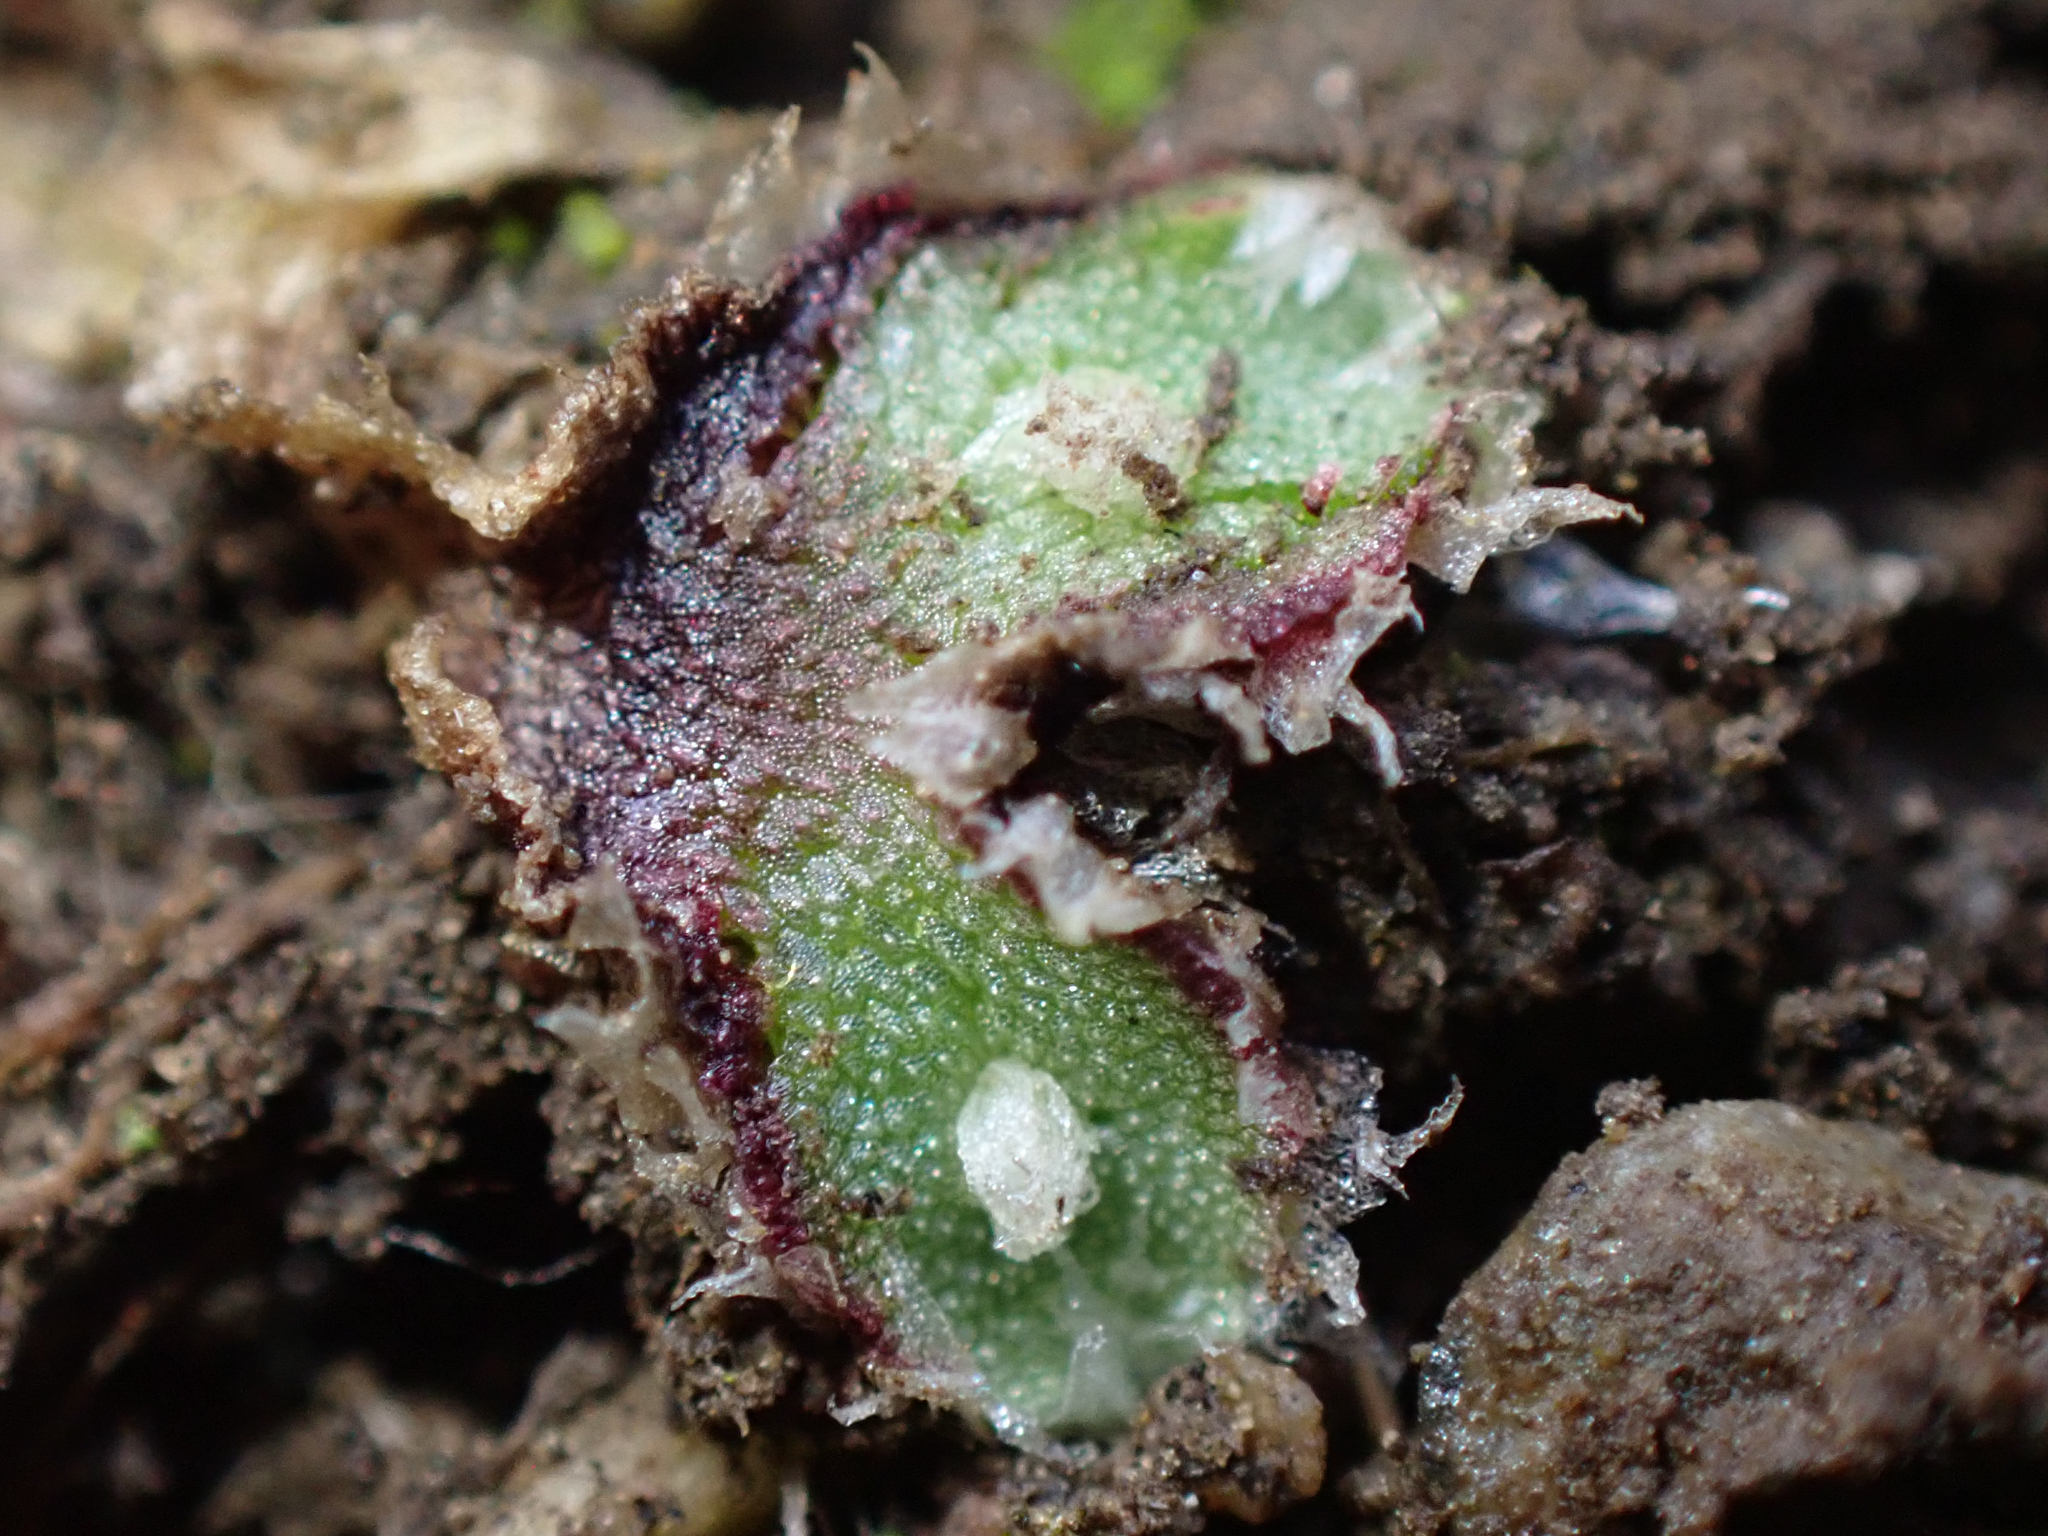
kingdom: Plantae
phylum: Marchantiophyta
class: Marchantiopsida
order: Marchantiales
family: Cleveaceae
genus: Clevea
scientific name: Clevea hyalina
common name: Hyaline liverwort
